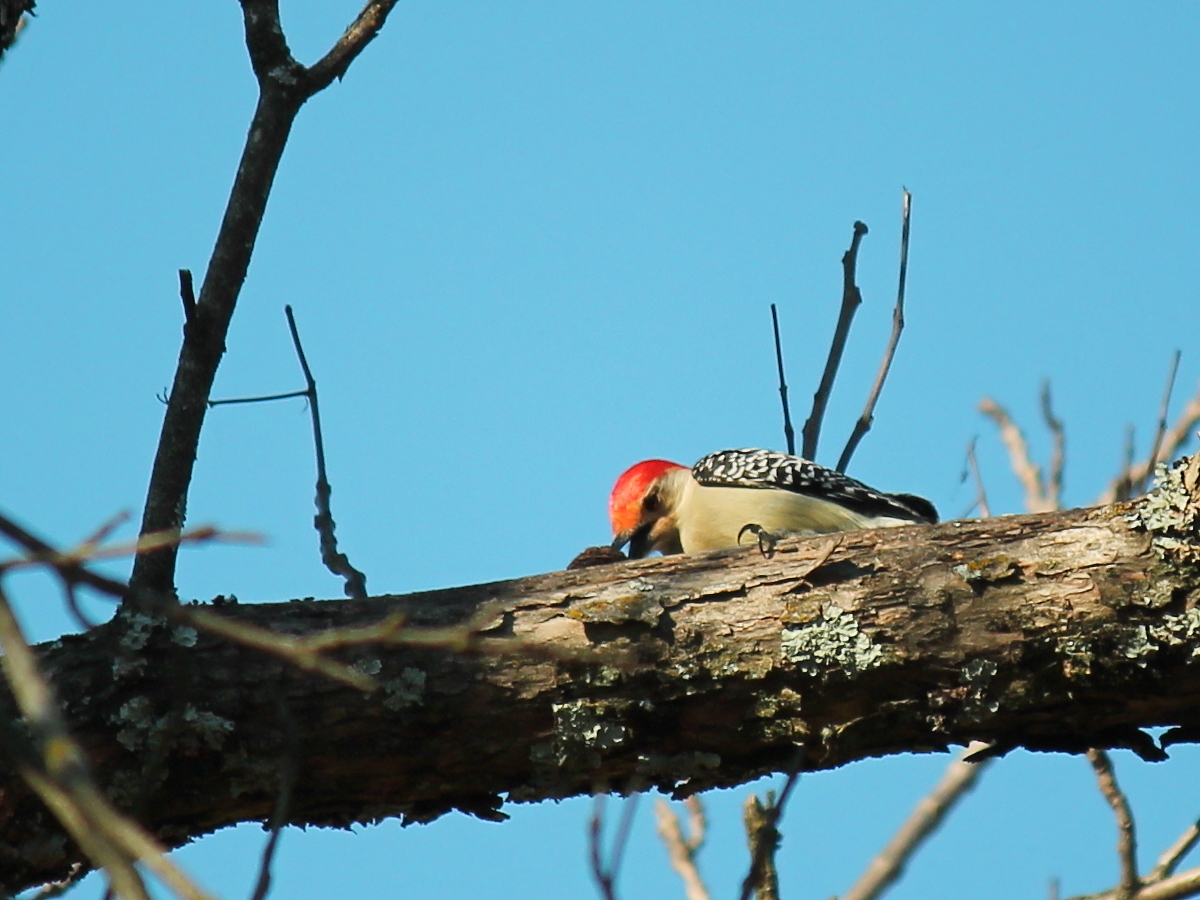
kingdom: Animalia
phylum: Chordata
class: Aves
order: Piciformes
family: Picidae
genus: Melanerpes
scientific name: Melanerpes carolinus
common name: Red-bellied woodpecker
